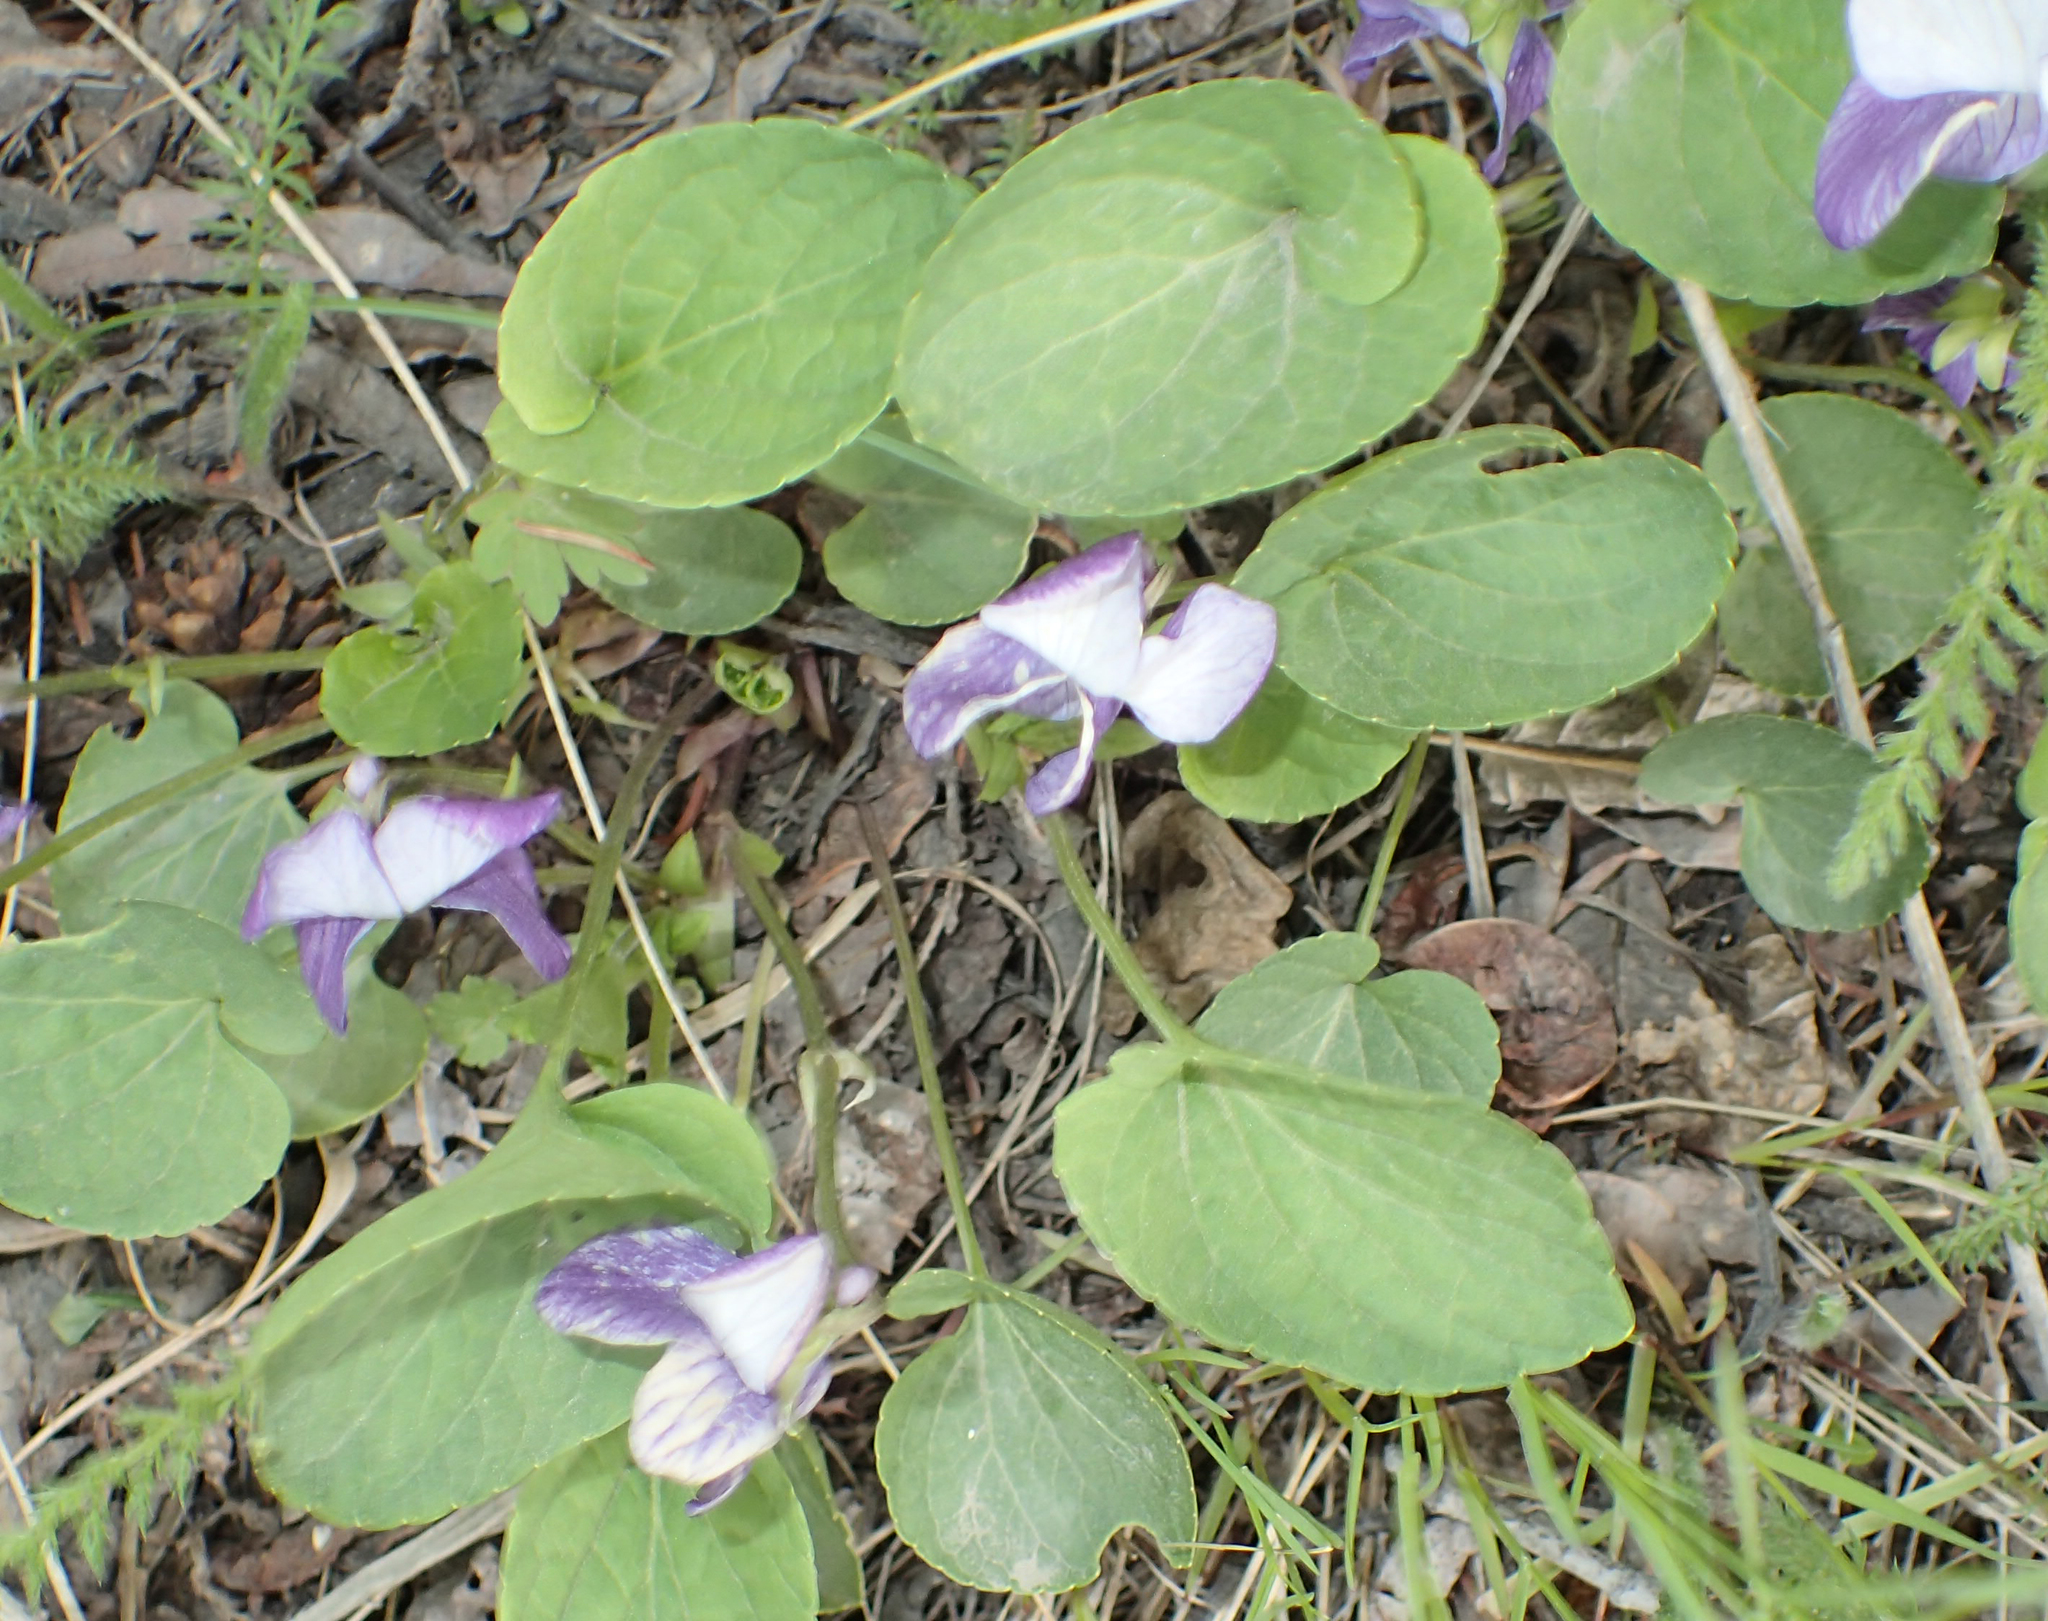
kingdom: Plantae
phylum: Tracheophyta
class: Magnoliopsida
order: Malpighiales
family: Violaceae
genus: Viola
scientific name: Viola langsdorffii
